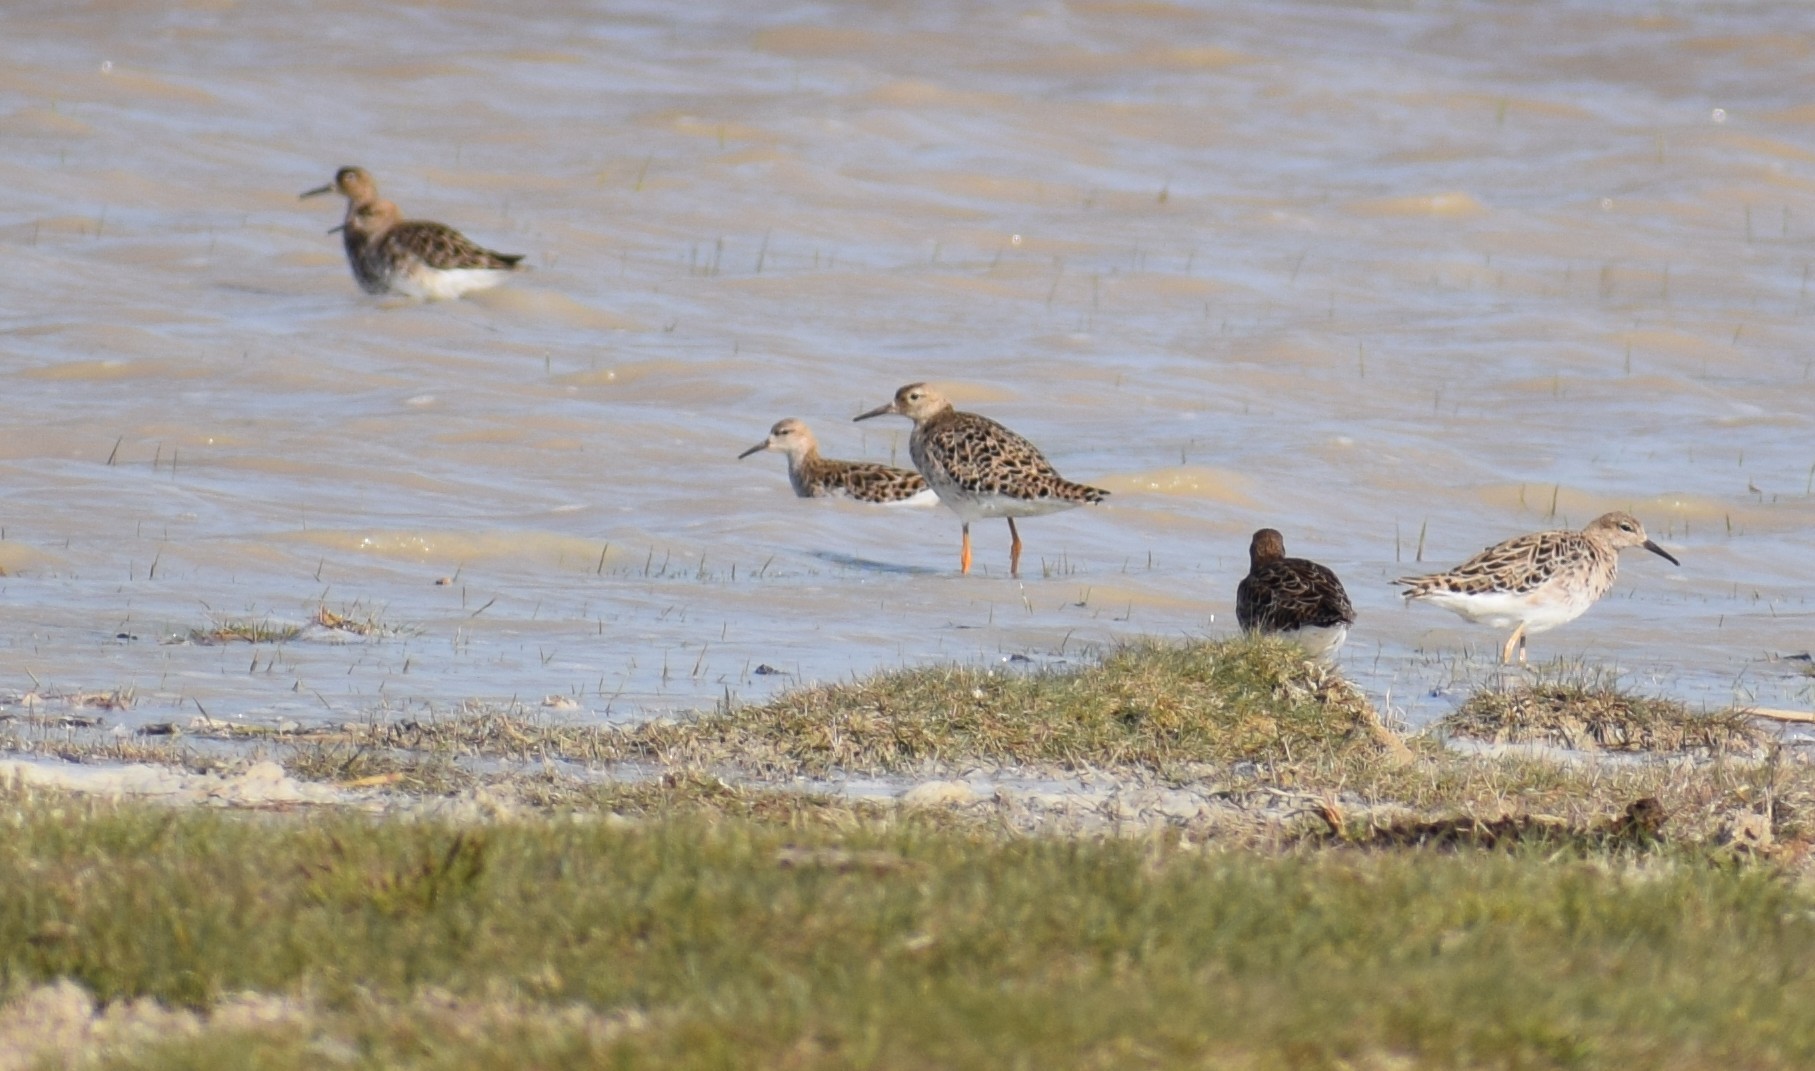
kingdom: Animalia
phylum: Chordata
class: Aves
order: Charadriiformes
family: Scolopacidae
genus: Calidris
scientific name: Calidris pugnax
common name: Ruff
